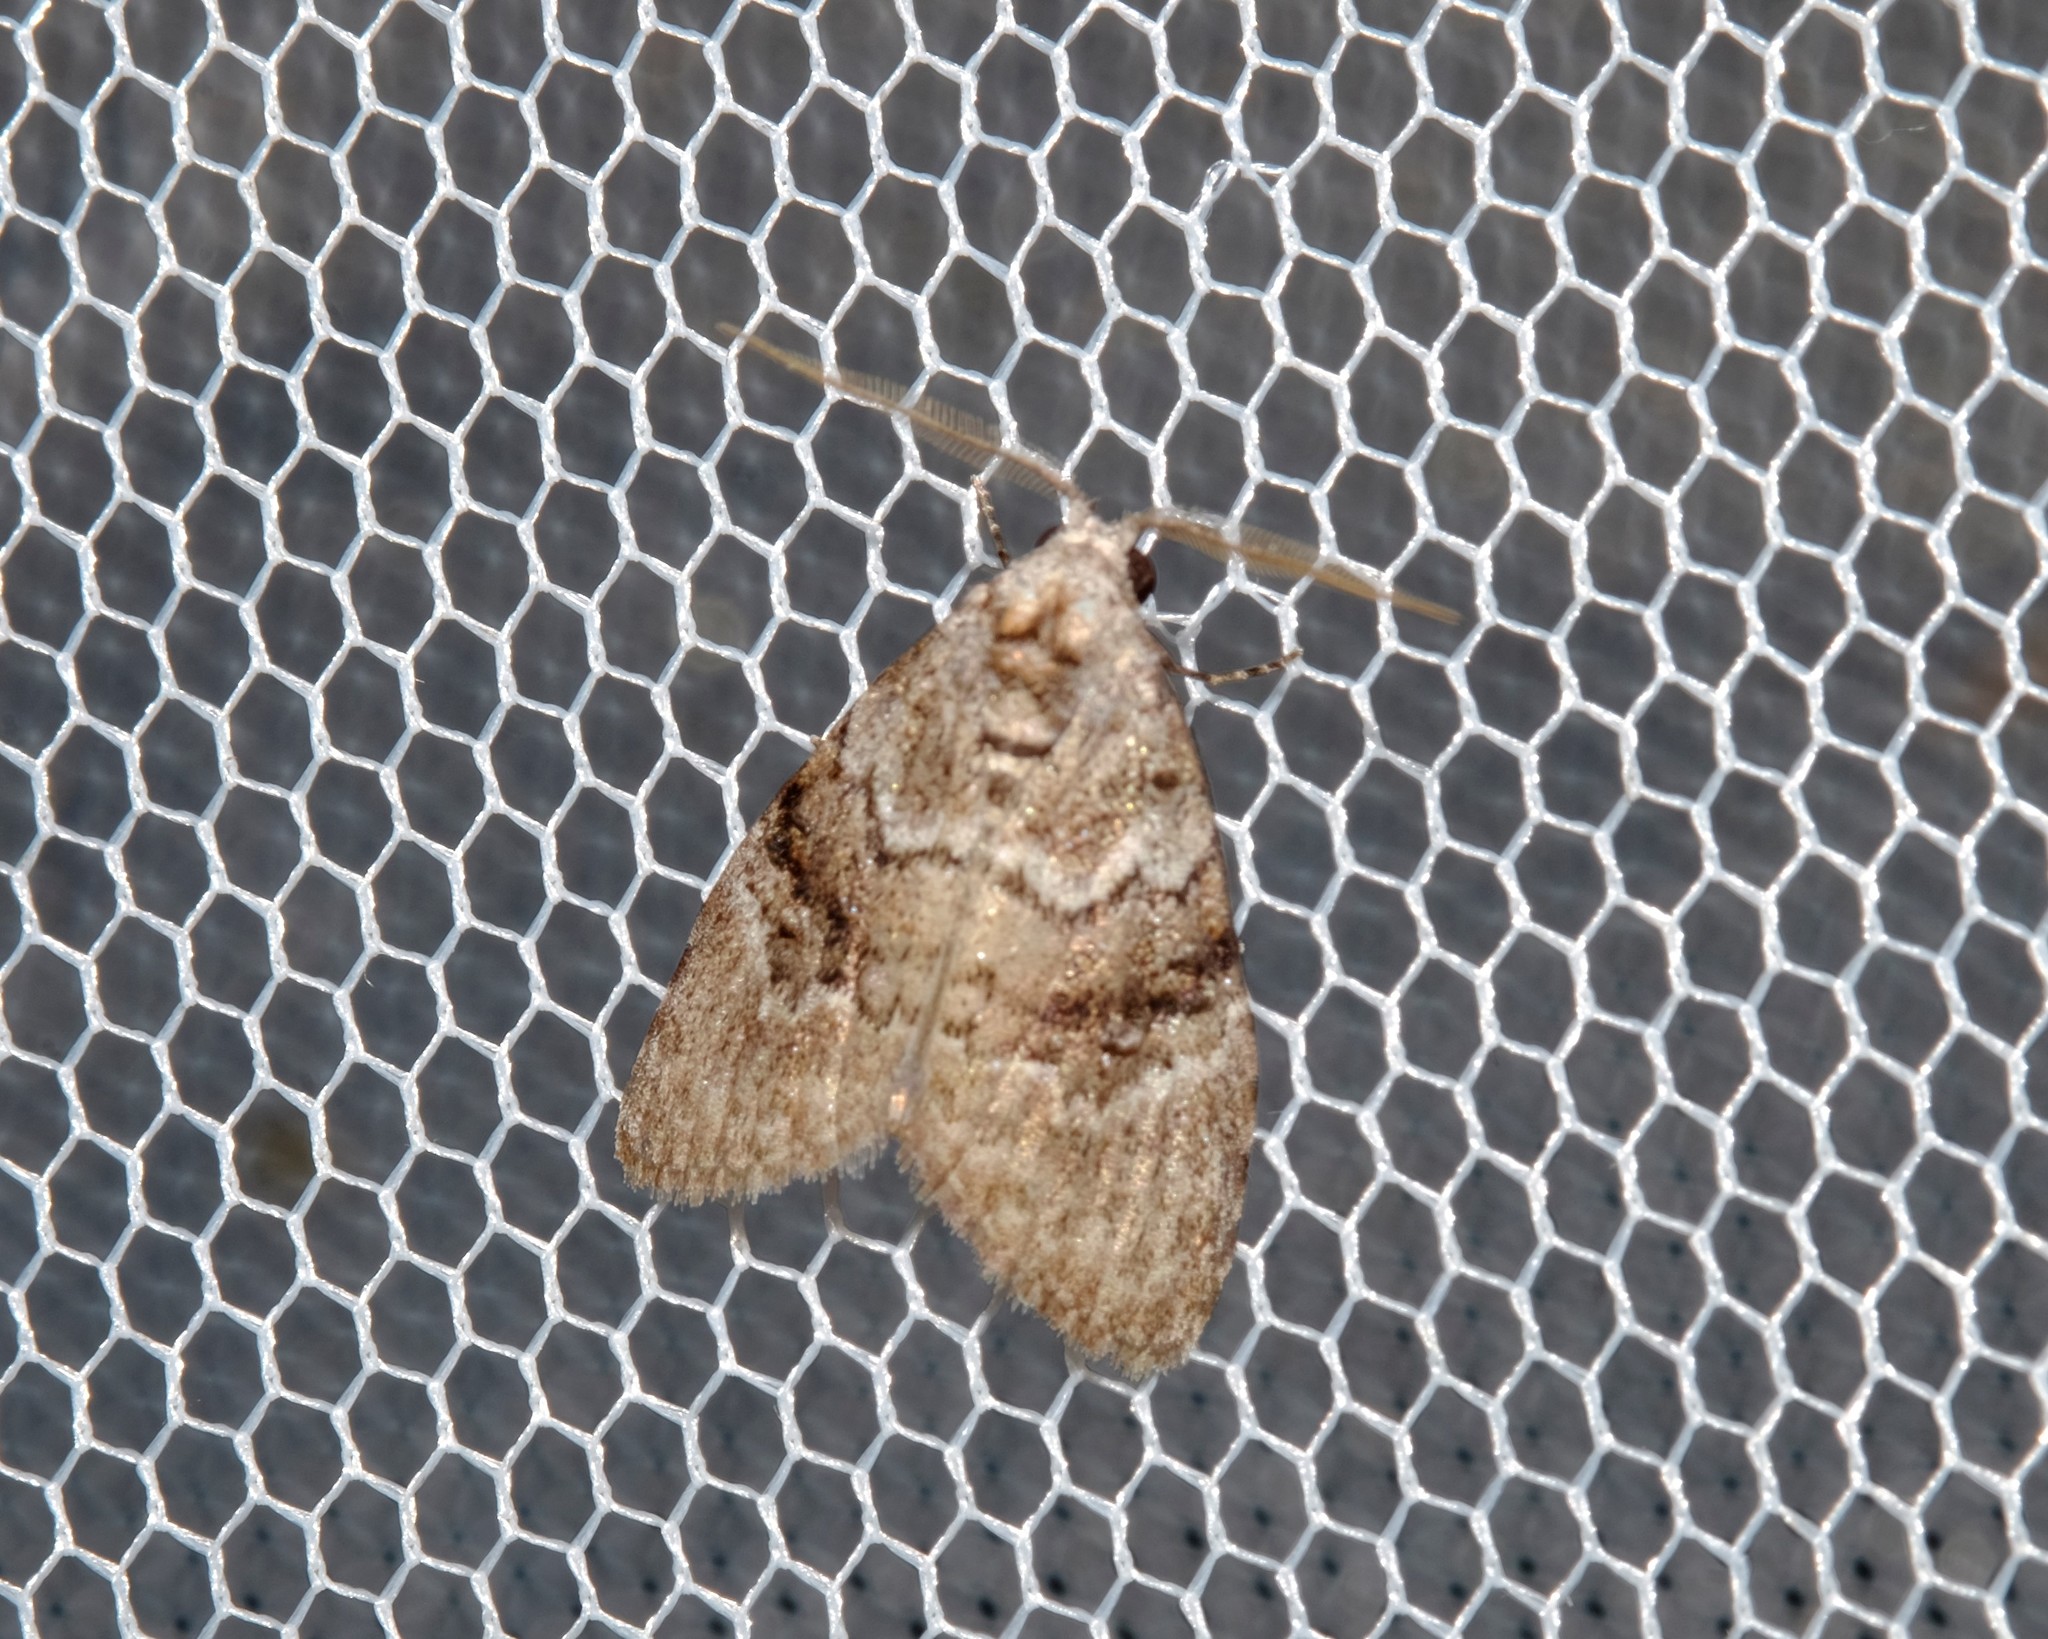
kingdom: Animalia
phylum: Arthropoda
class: Insecta
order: Lepidoptera
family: Nolidae
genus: Uraba
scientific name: Uraba lugens
